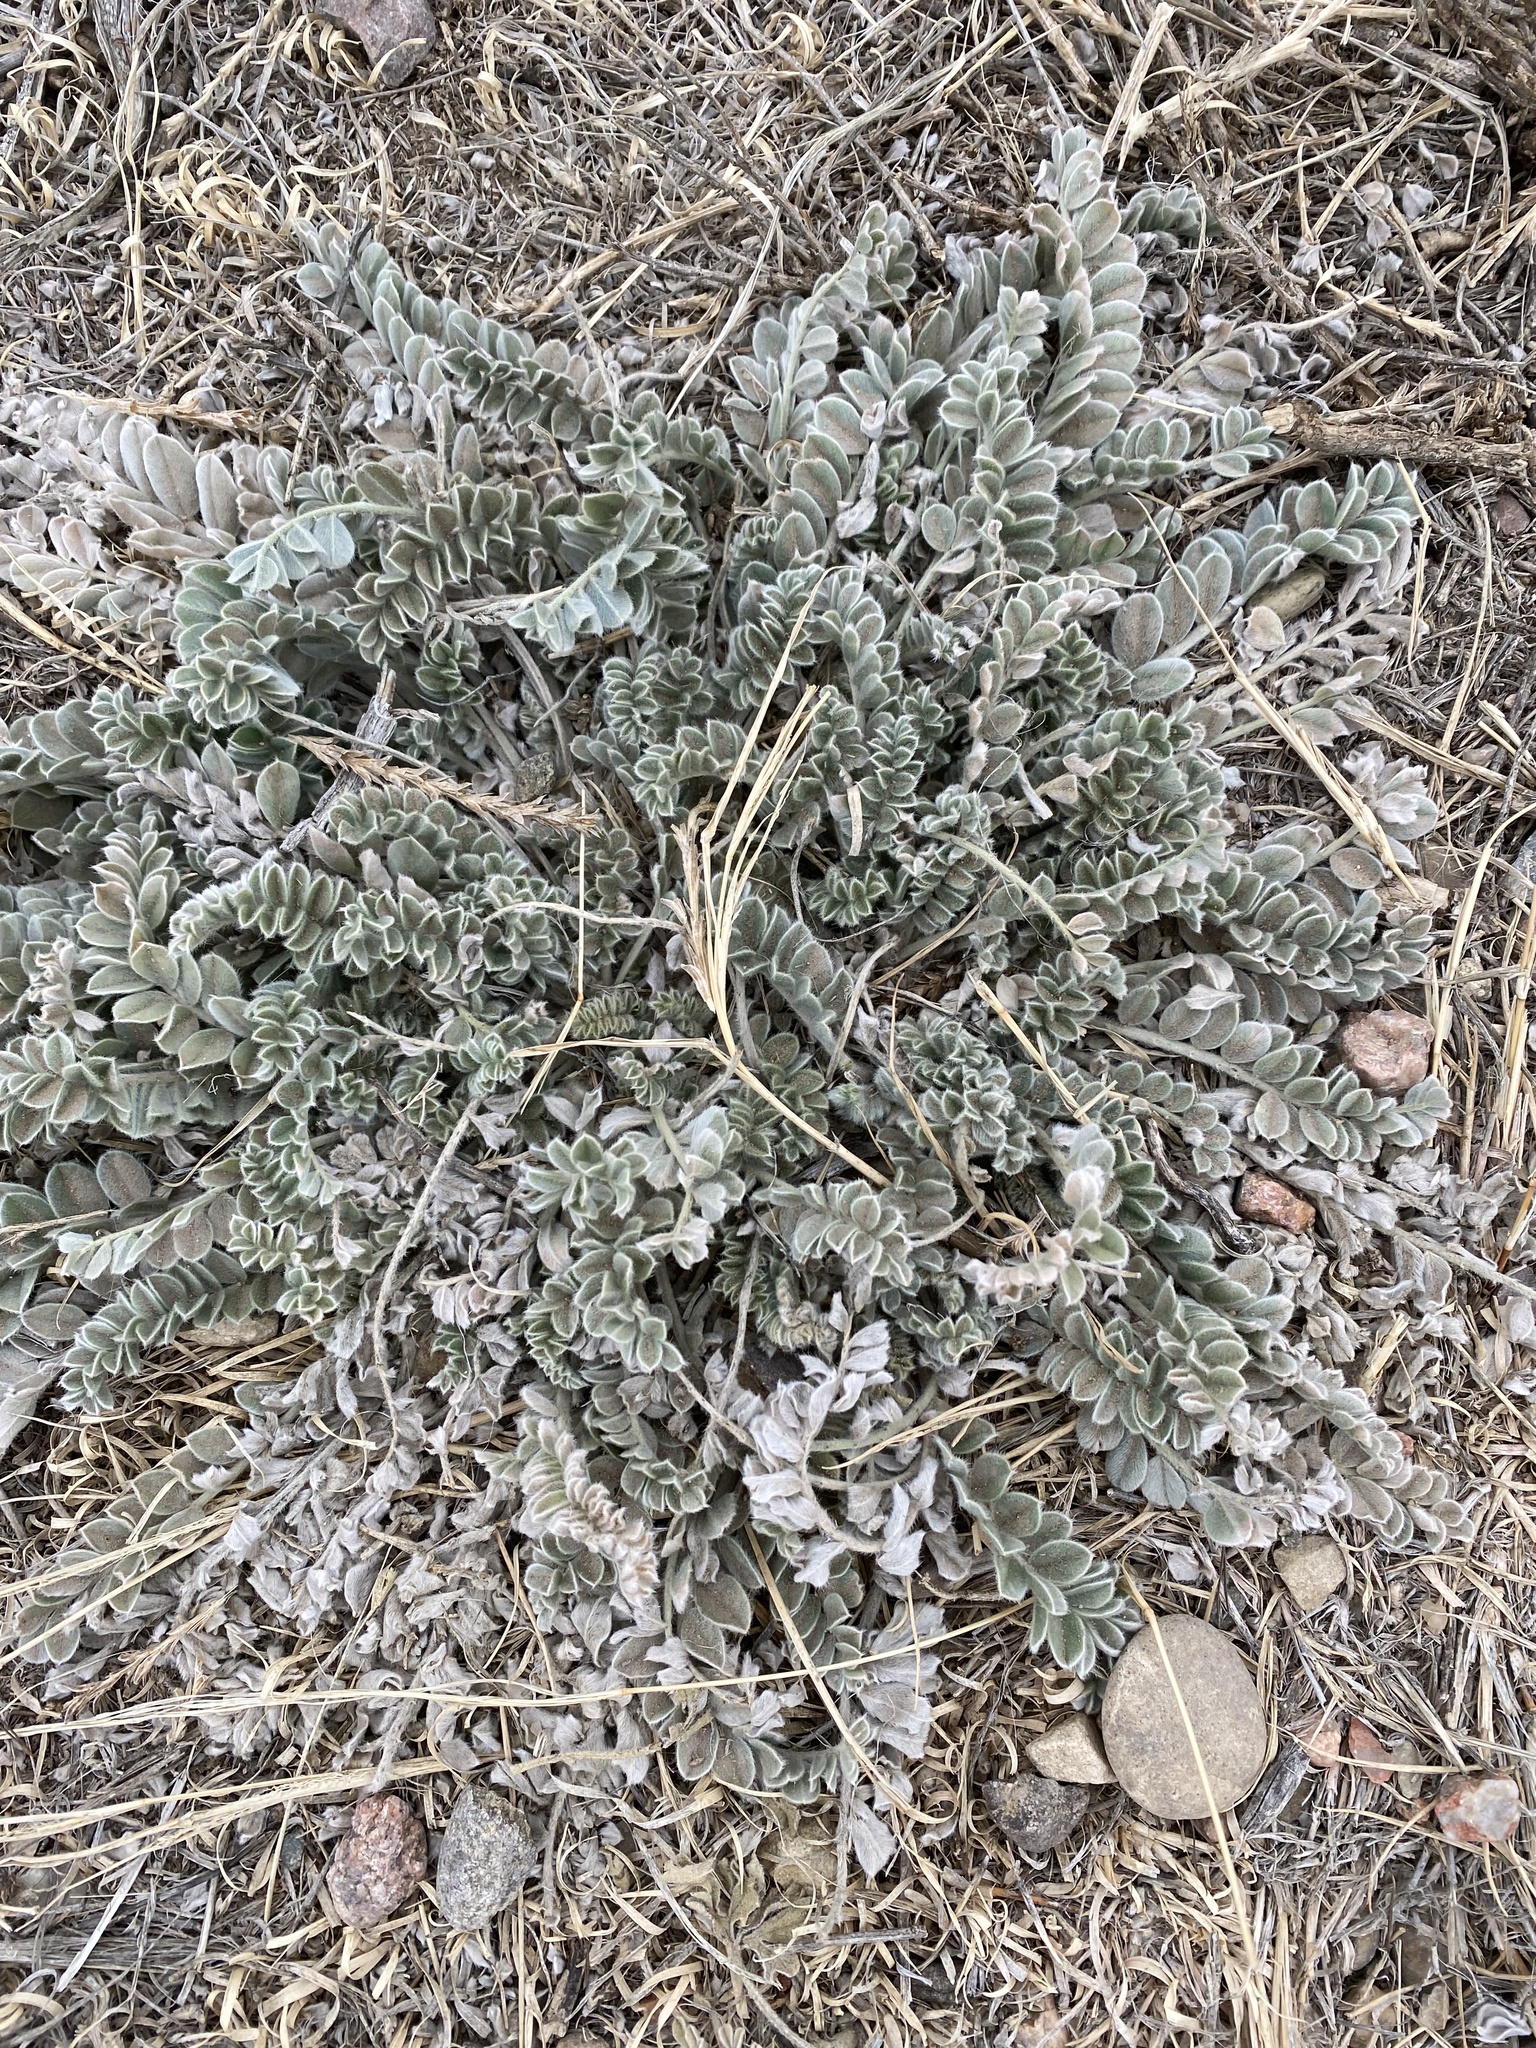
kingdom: Plantae
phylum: Tracheophyta
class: Magnoliopsida
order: Fabales
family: Fabaceae
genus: Astragalus
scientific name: Astragalus mollissimus
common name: Woolly locoweed
